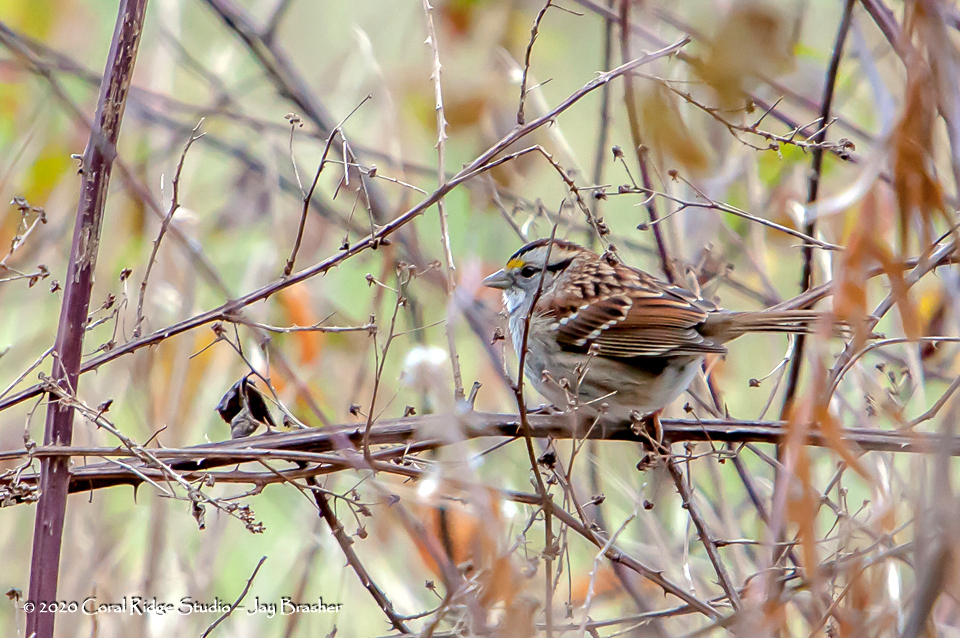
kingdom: Animalia
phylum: Chordata
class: Aves
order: Passeriformes
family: Passerellidae
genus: Zonotrichia
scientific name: Zonotrichia albicollis
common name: White-throated sparrow
